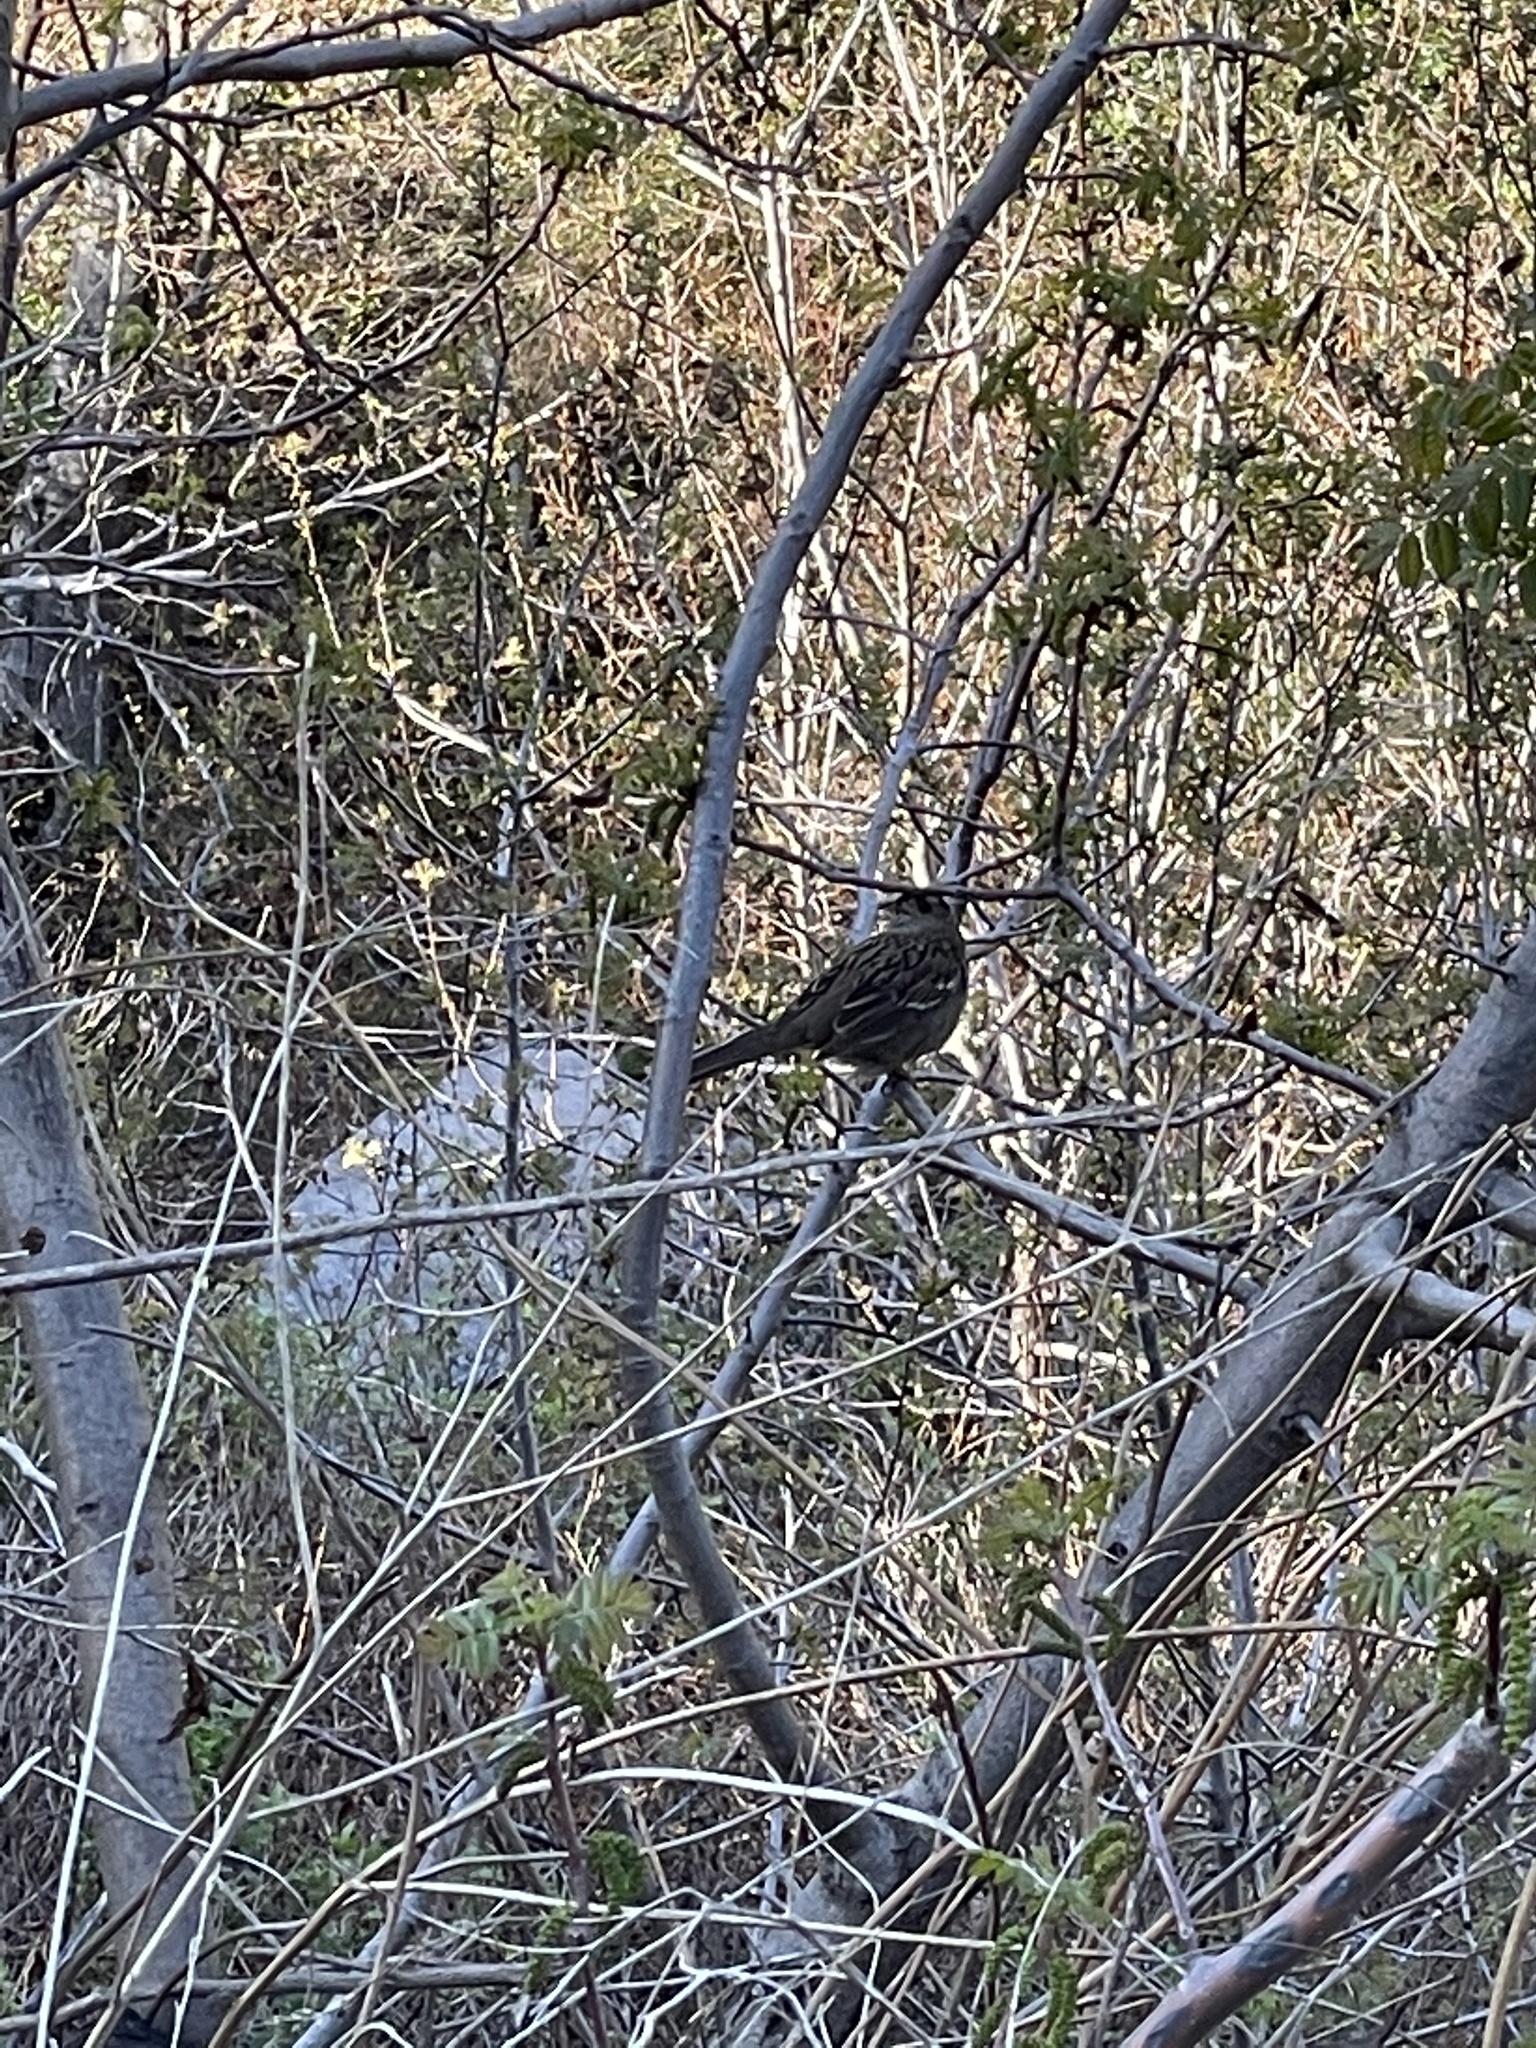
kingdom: Animalia
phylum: Chordata
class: Aves
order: Passeriformes
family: Passerellidae
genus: Zonotrichia
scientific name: Zonotrichia atricapilla
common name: Golden-crowned sparrow
